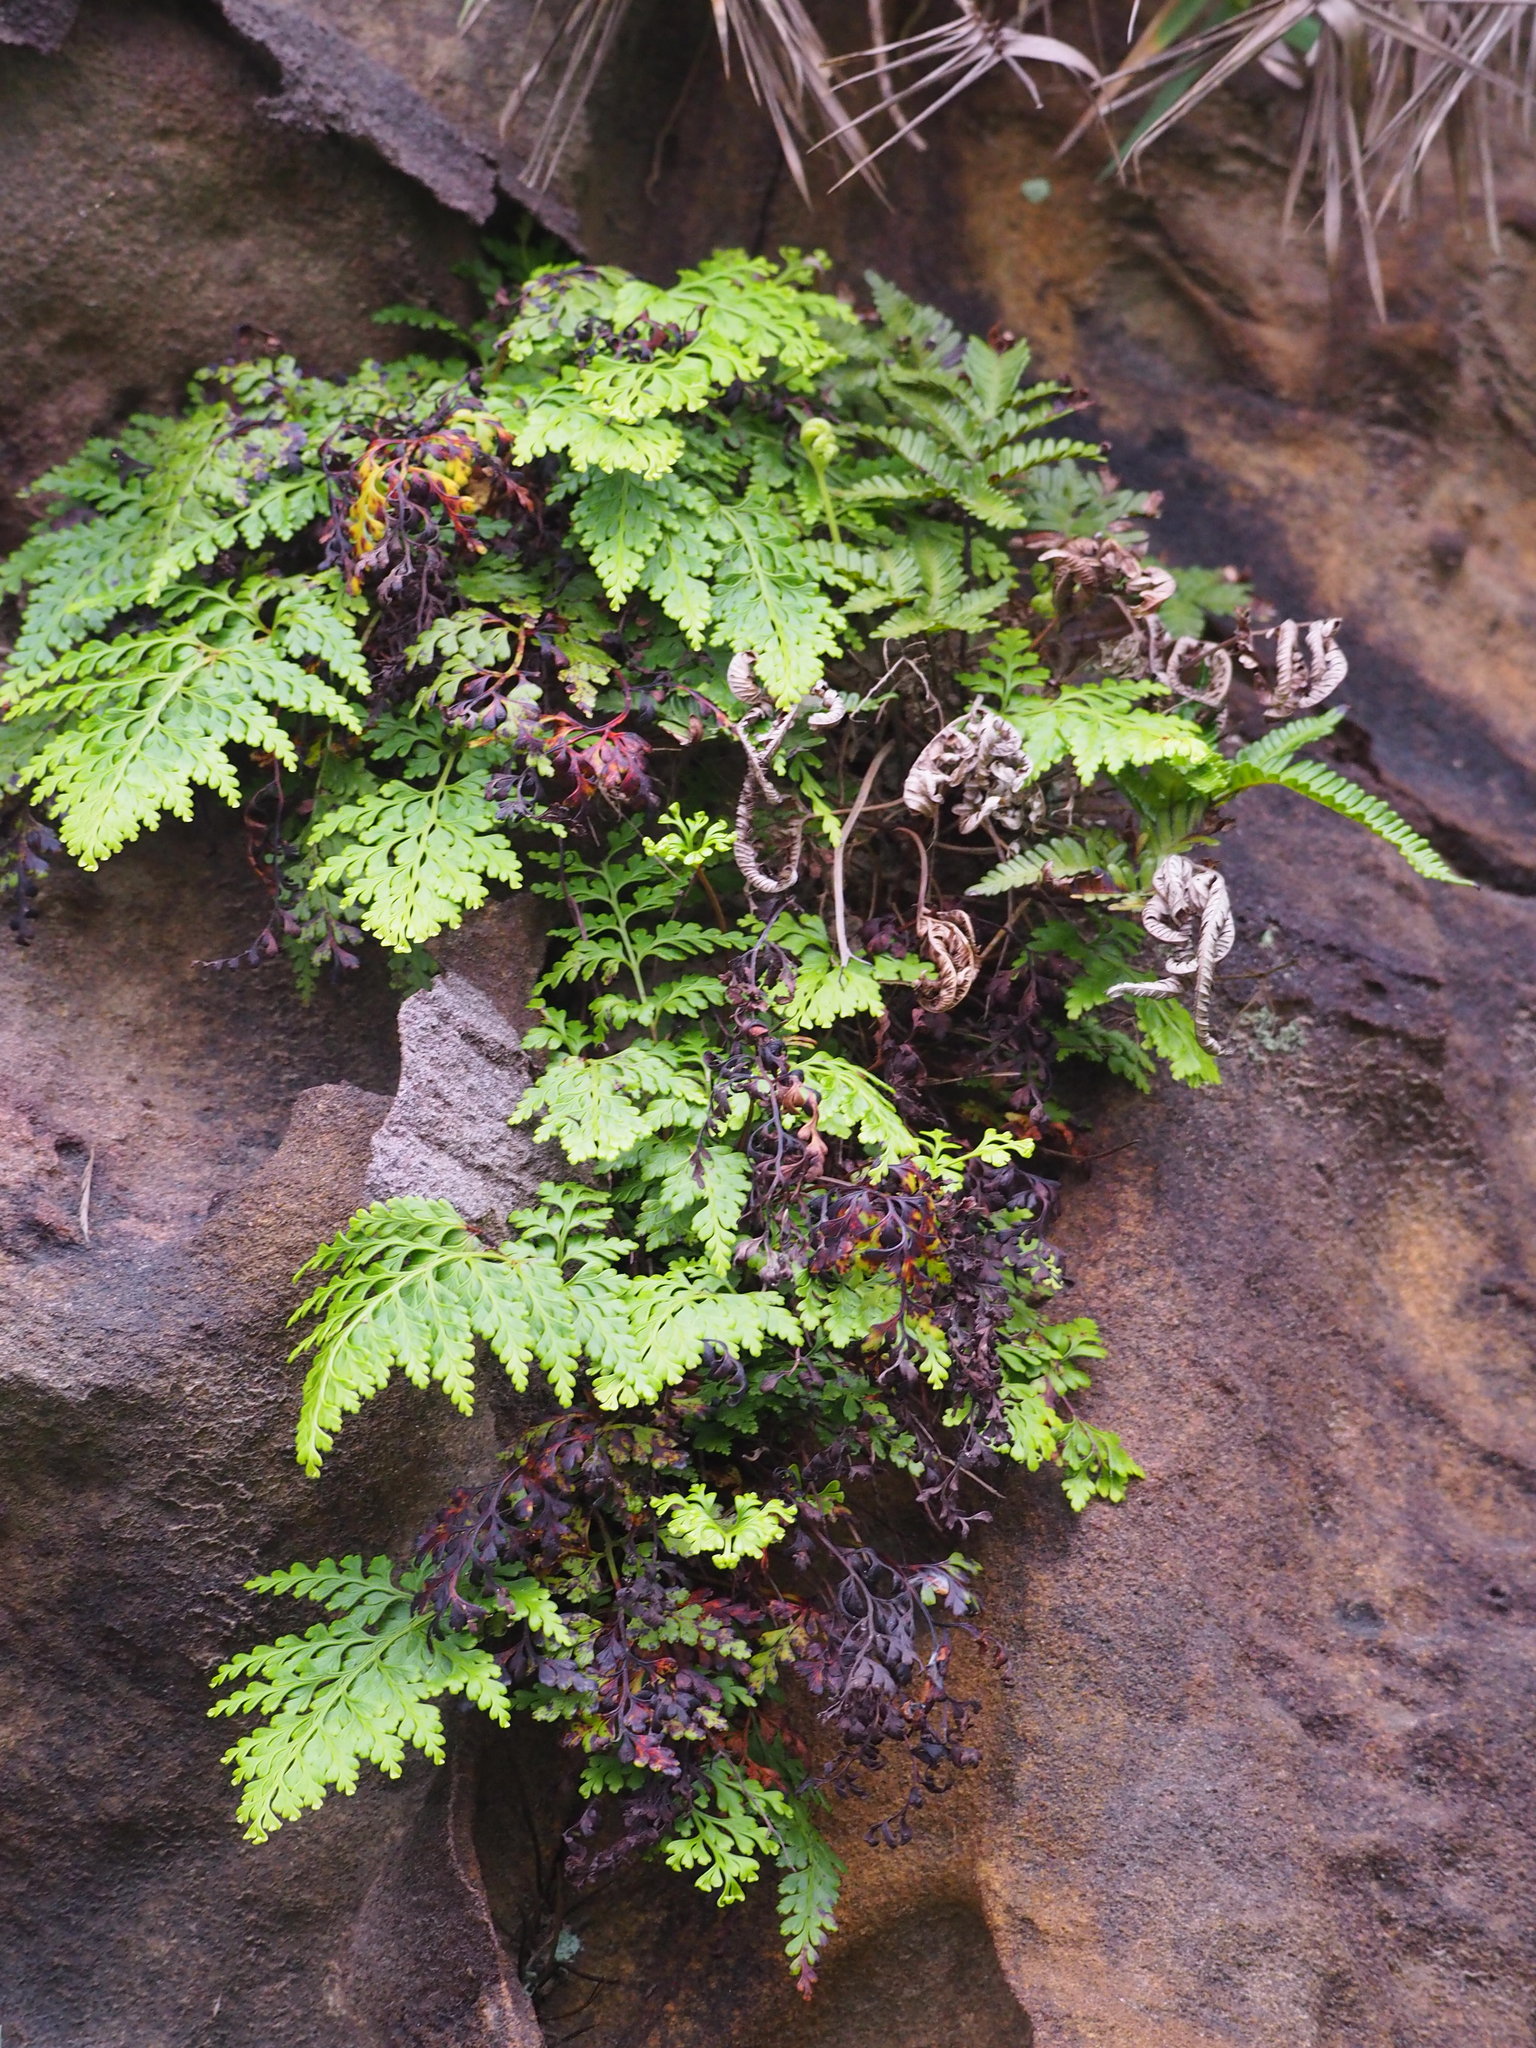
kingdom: Plantae
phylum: Tracheophyta
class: Polypodiopsida
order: Polypodiales
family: Lindsaeaceae
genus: Odontosoria
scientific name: Odontosoria biflora
